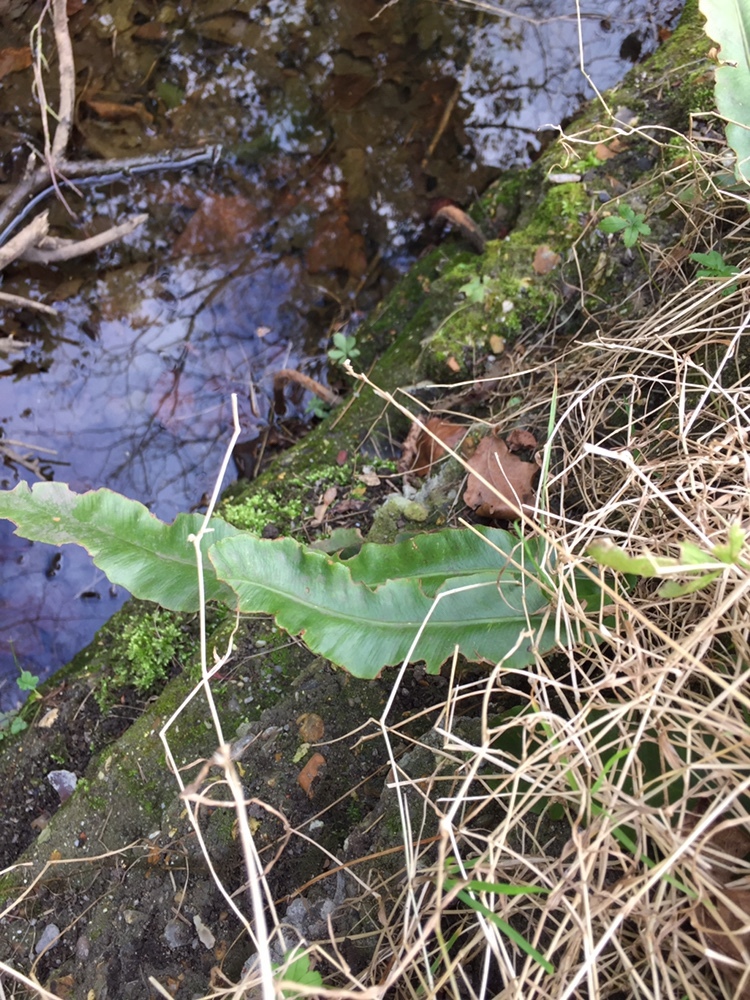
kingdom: Plantae
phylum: Tracheophyta
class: Polypodiopsida
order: Polypodiales
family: Aspleniaceae
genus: Asplenium
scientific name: Asplenium scolopendrium
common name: Hart's-tongue fern
